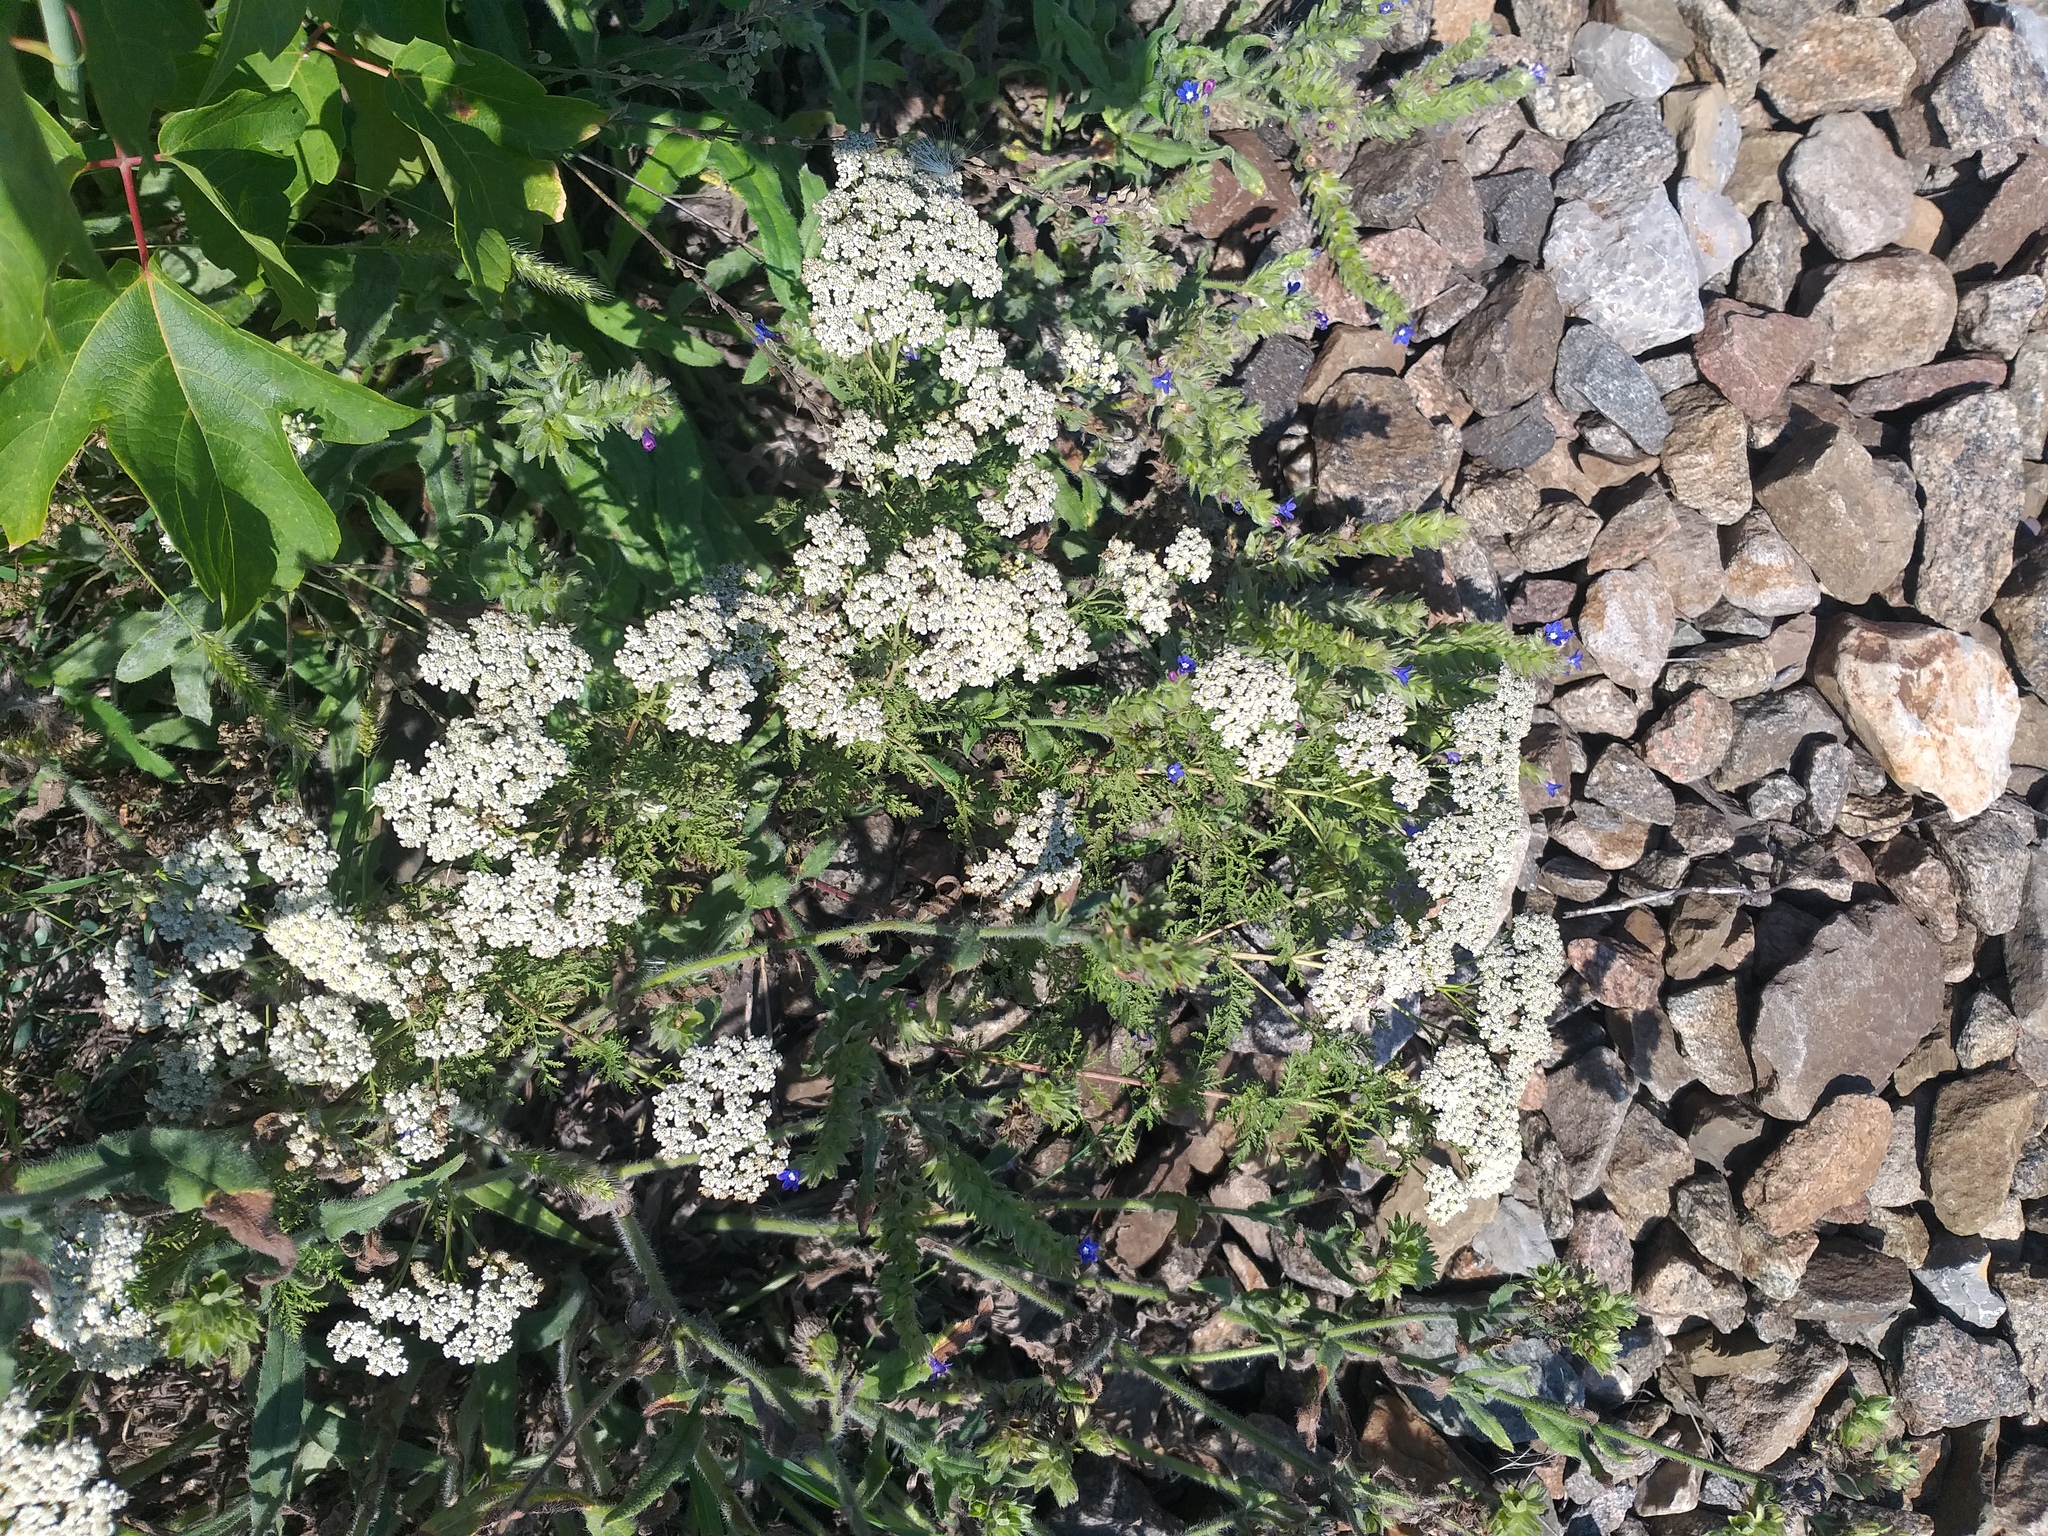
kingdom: Plantae
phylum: Tracheophyta
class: Magnoliopsida
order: Asterales
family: Asteraceae
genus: Achillea
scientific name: Achillea nobilis
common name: Noble yarrow
